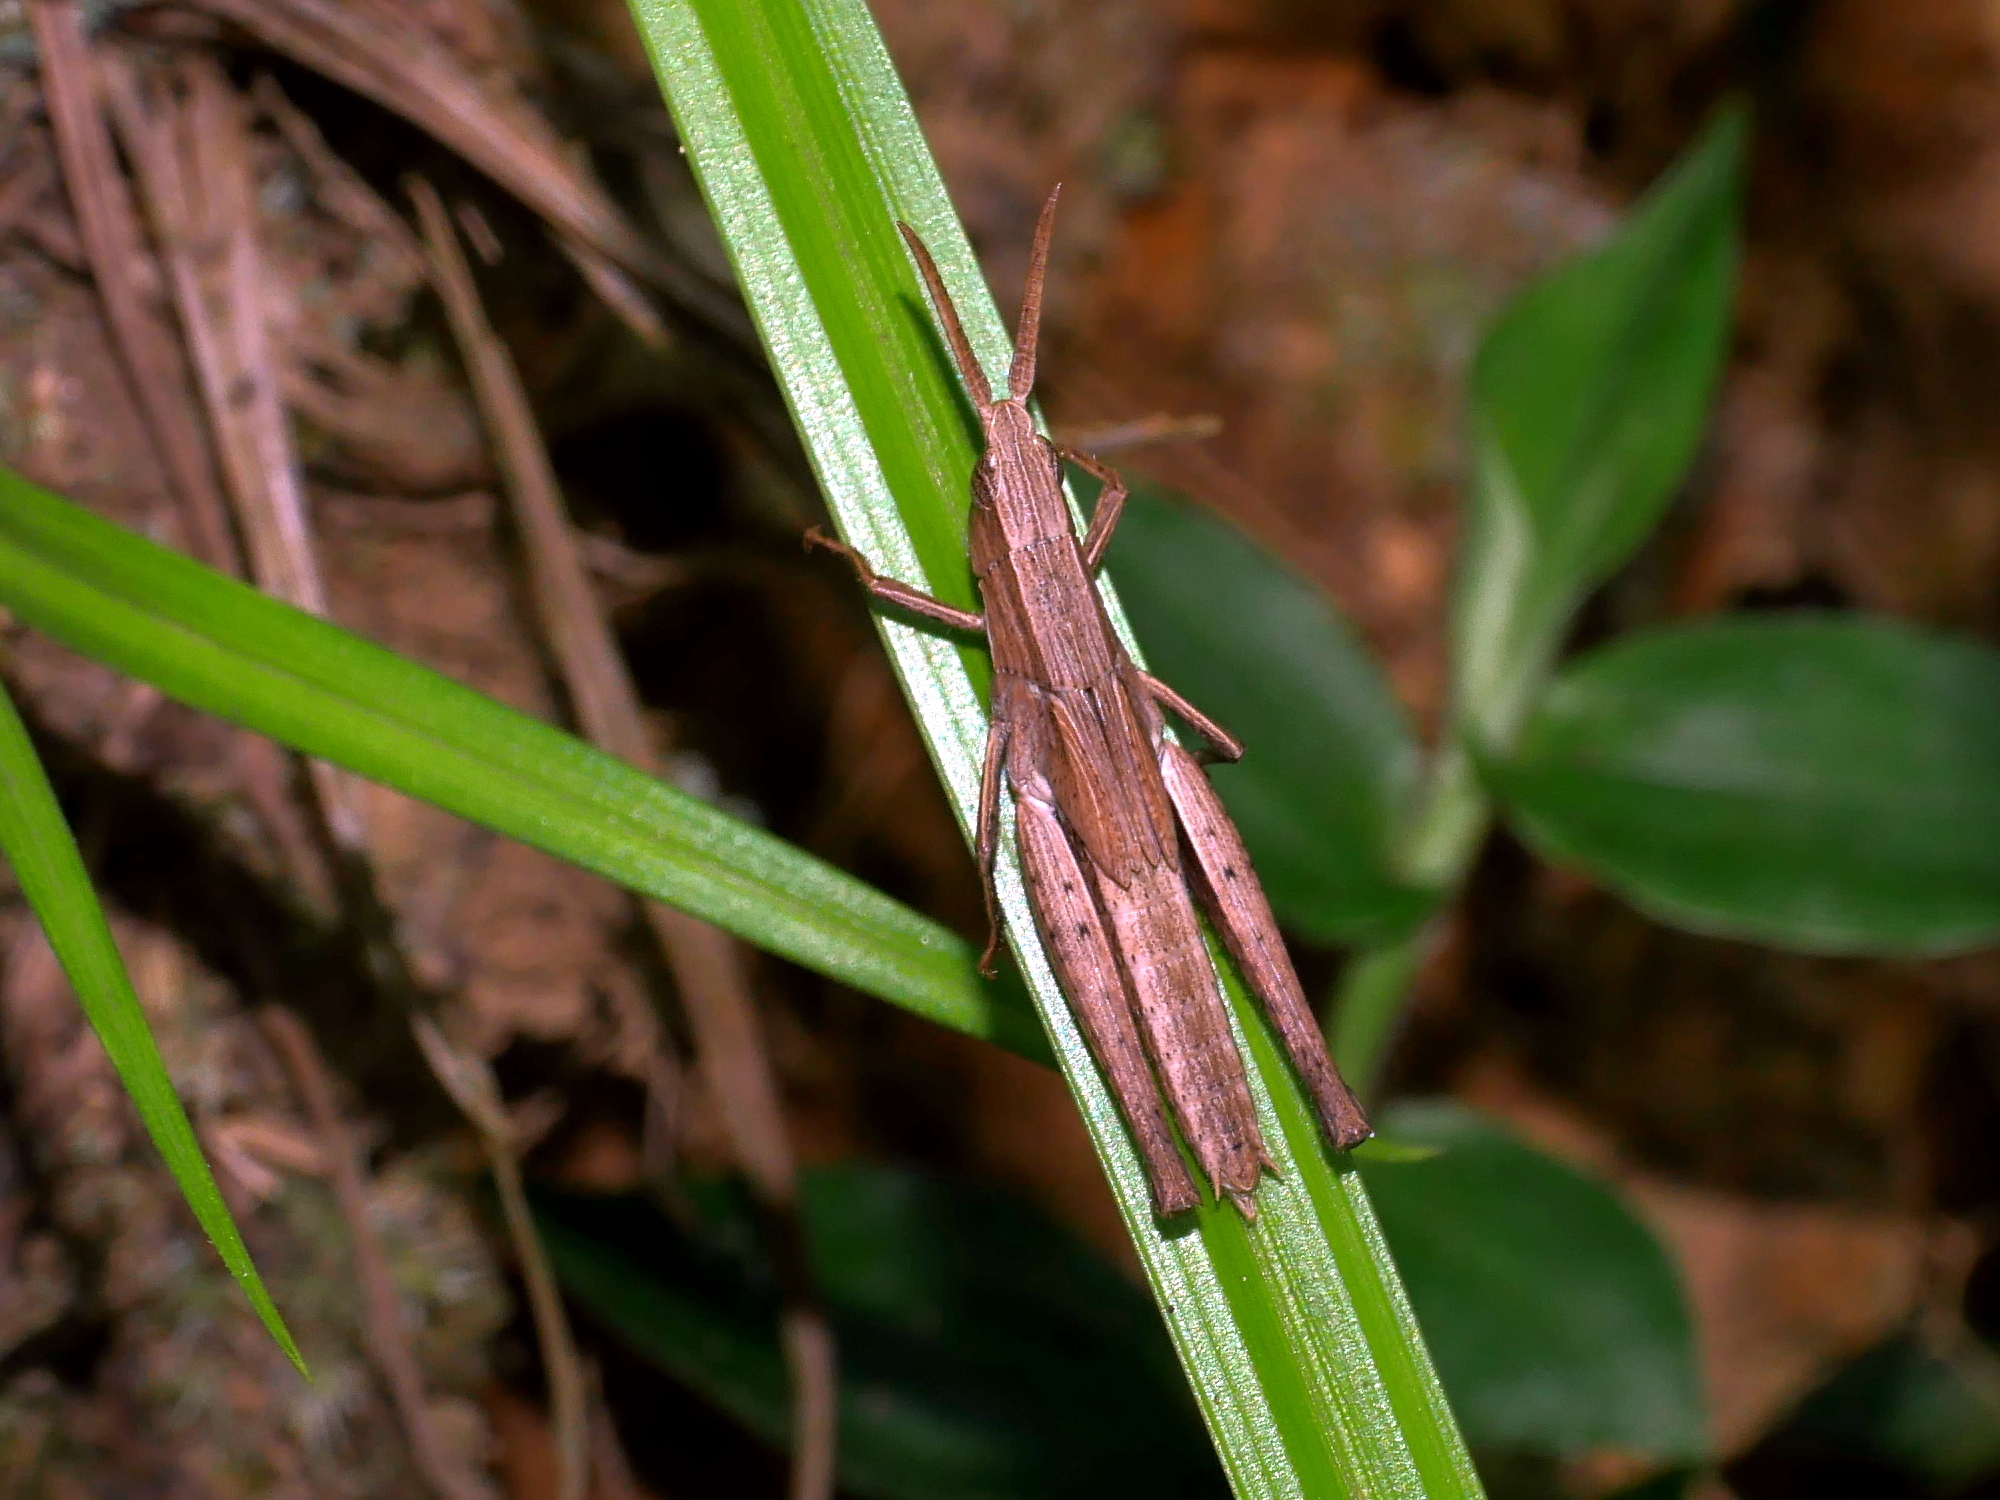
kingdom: Animalia
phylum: Arthropoda
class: Insecta
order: Orthoptera
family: Acrididae
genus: Phlaeoba
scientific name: Phlaeoba infumata
